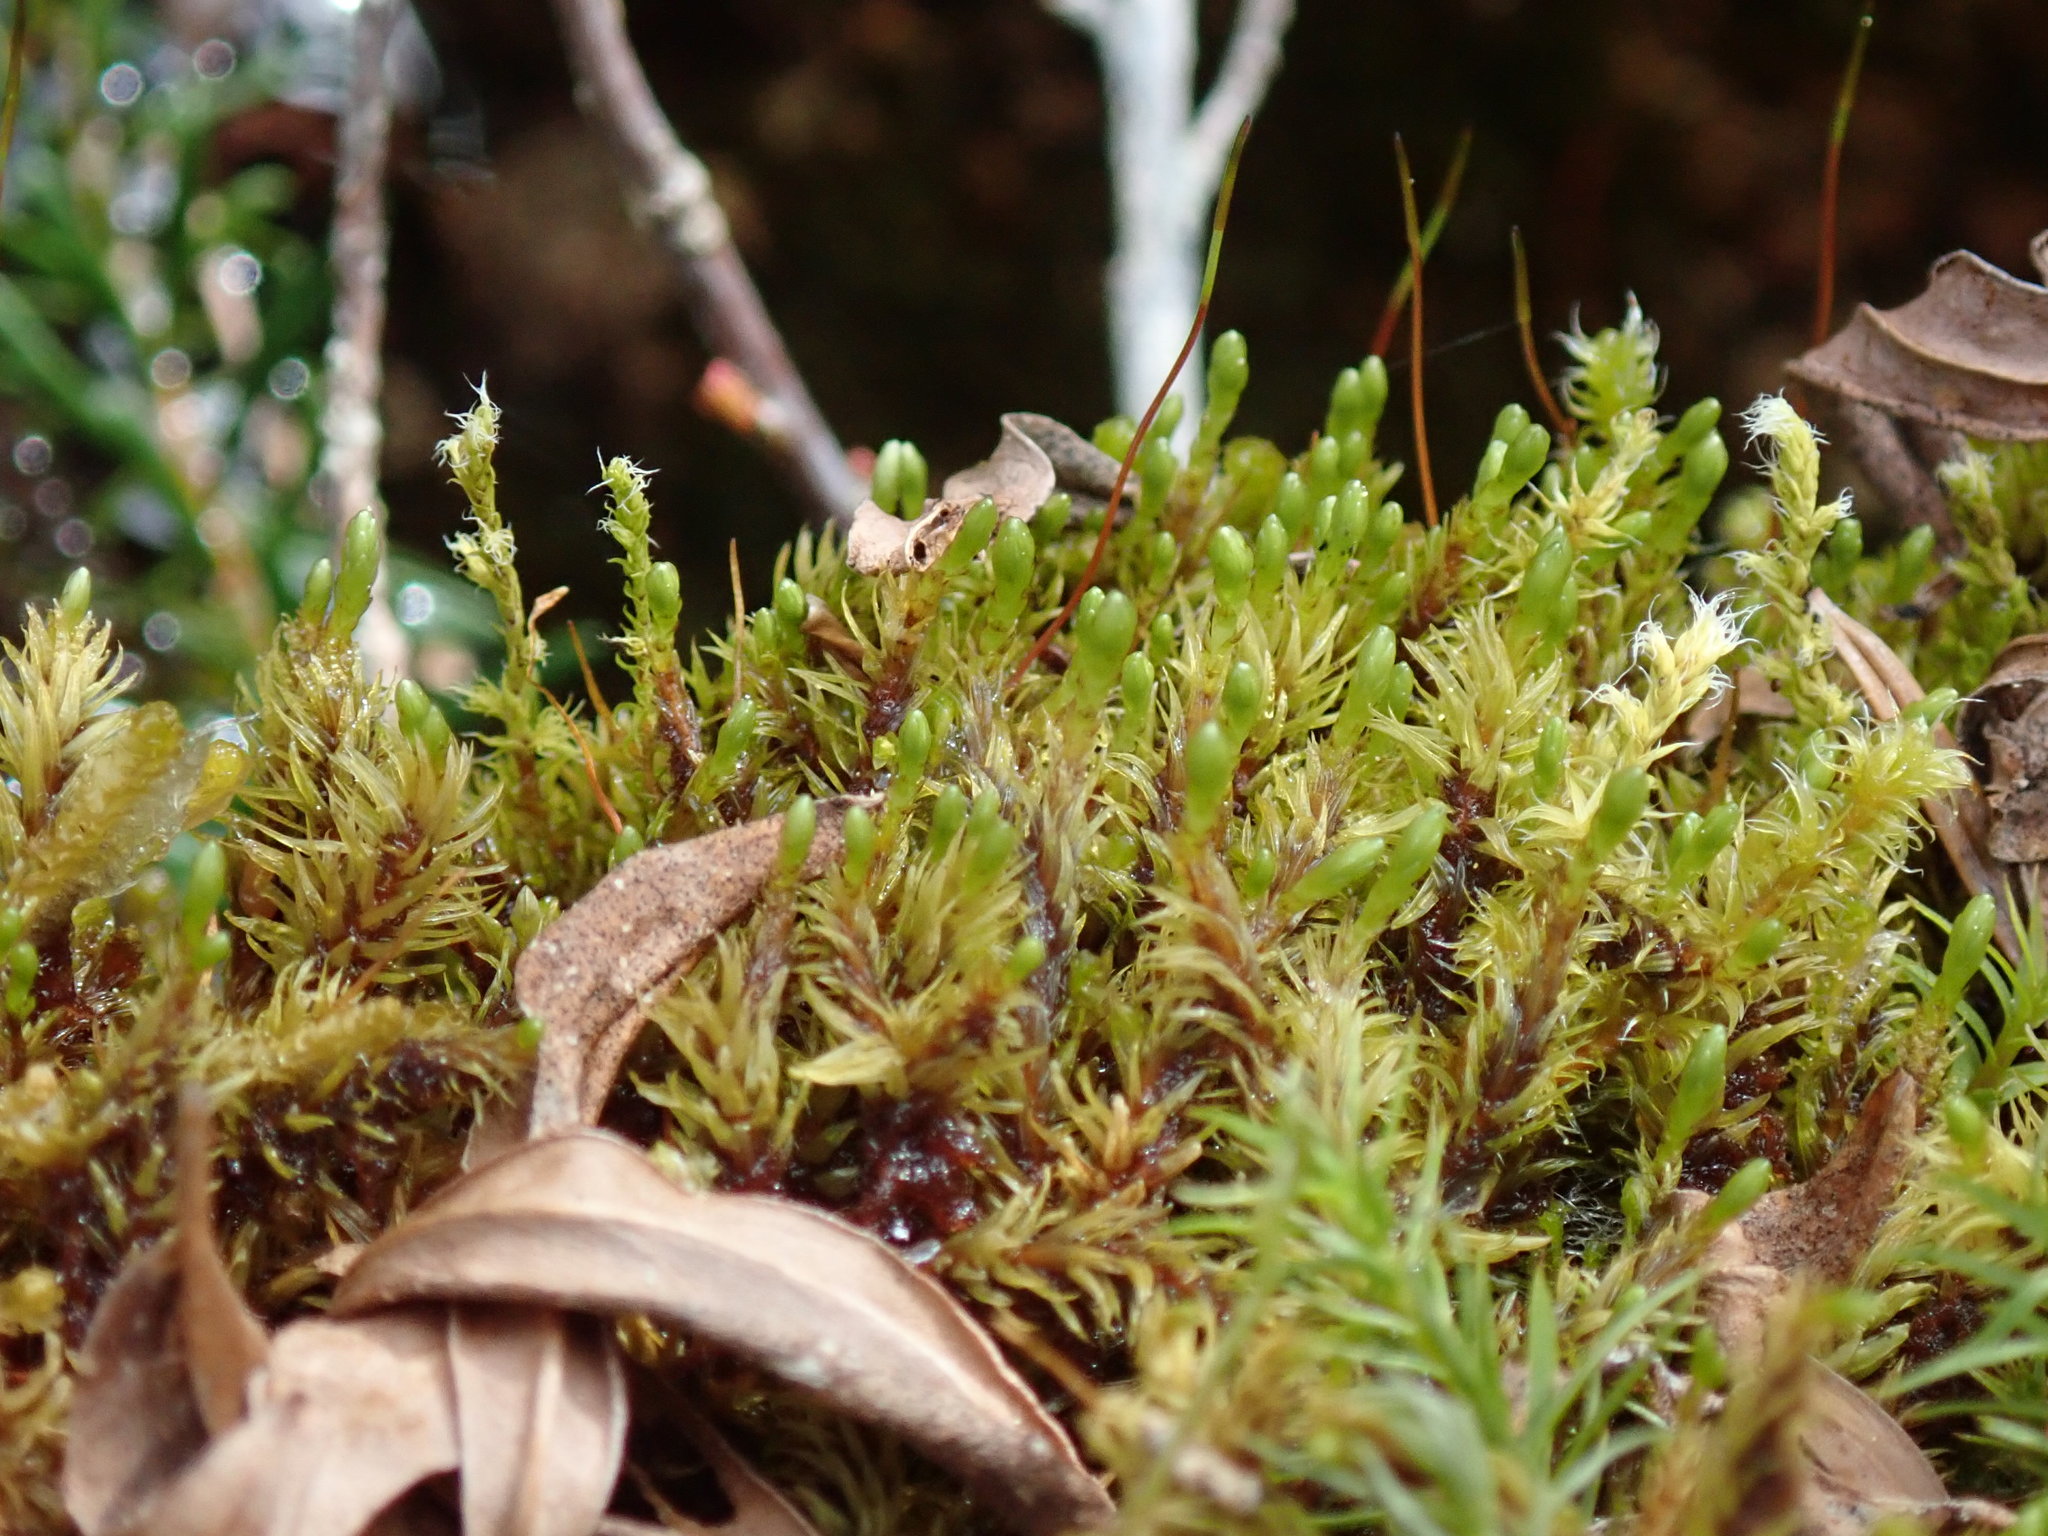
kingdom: Plantae
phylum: Bryophyta
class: Bryopsida
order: Aulacomniales
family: Aulacomniaceae
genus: Aulacomnium
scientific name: Aulacomnium palustre
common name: Bog groove-moss
